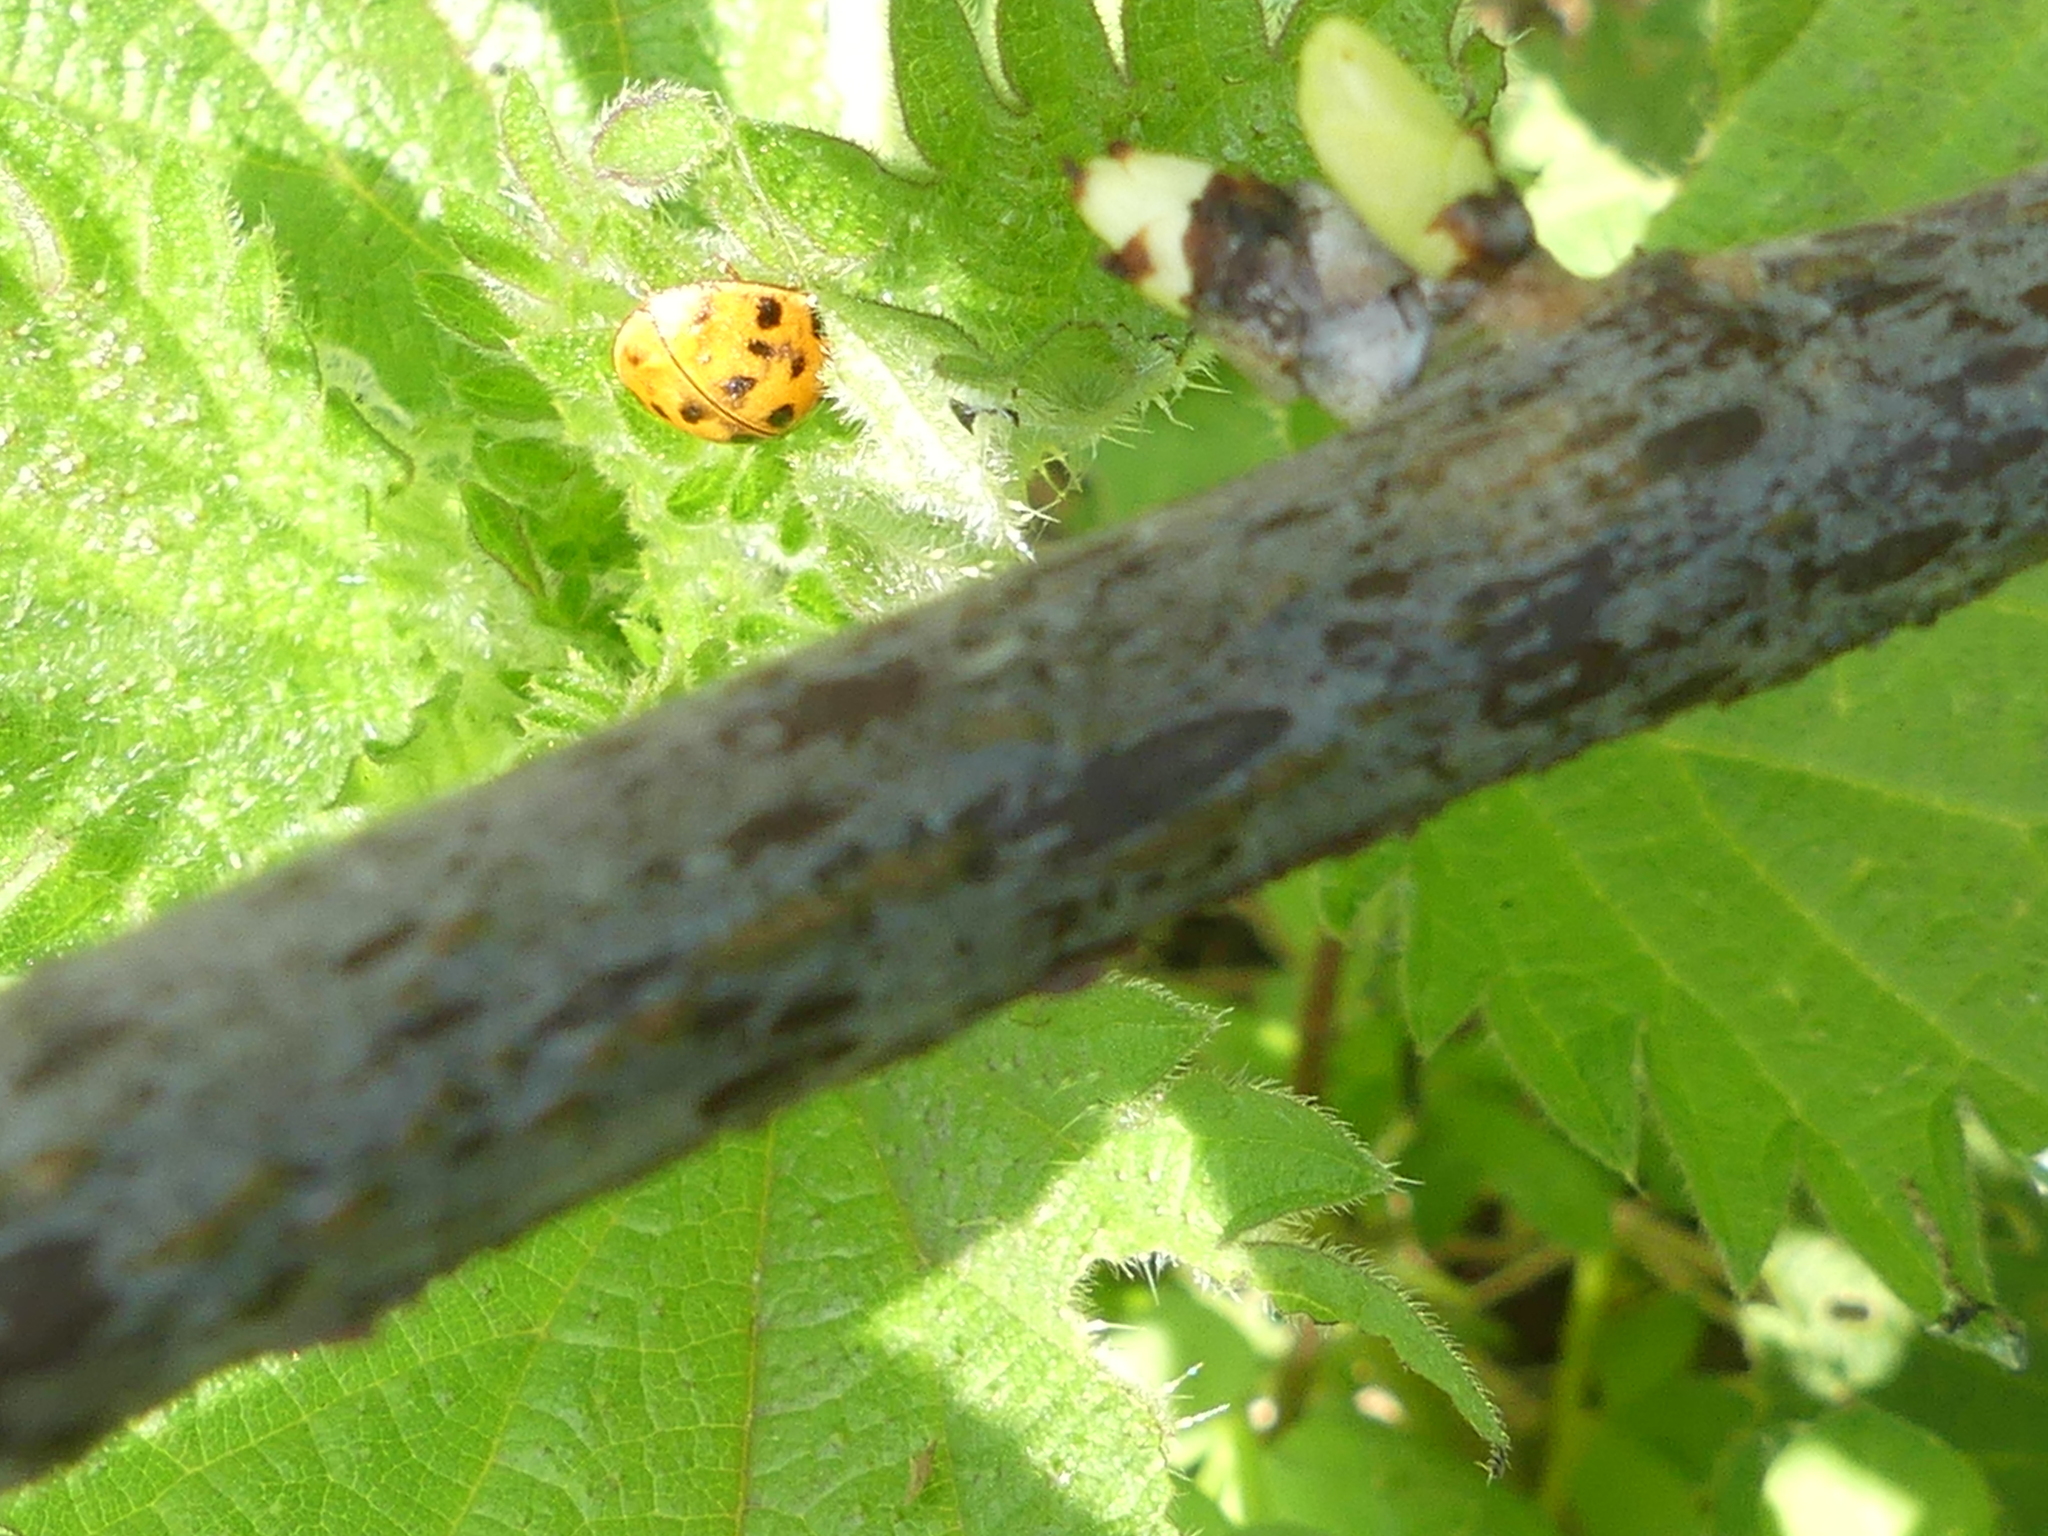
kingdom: Animalia
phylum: Arthropoda
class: Insecta
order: Coleoptera
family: Coccinellidae
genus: Harmonia
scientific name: Harmonia axyridis
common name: Harlequin ladybird
